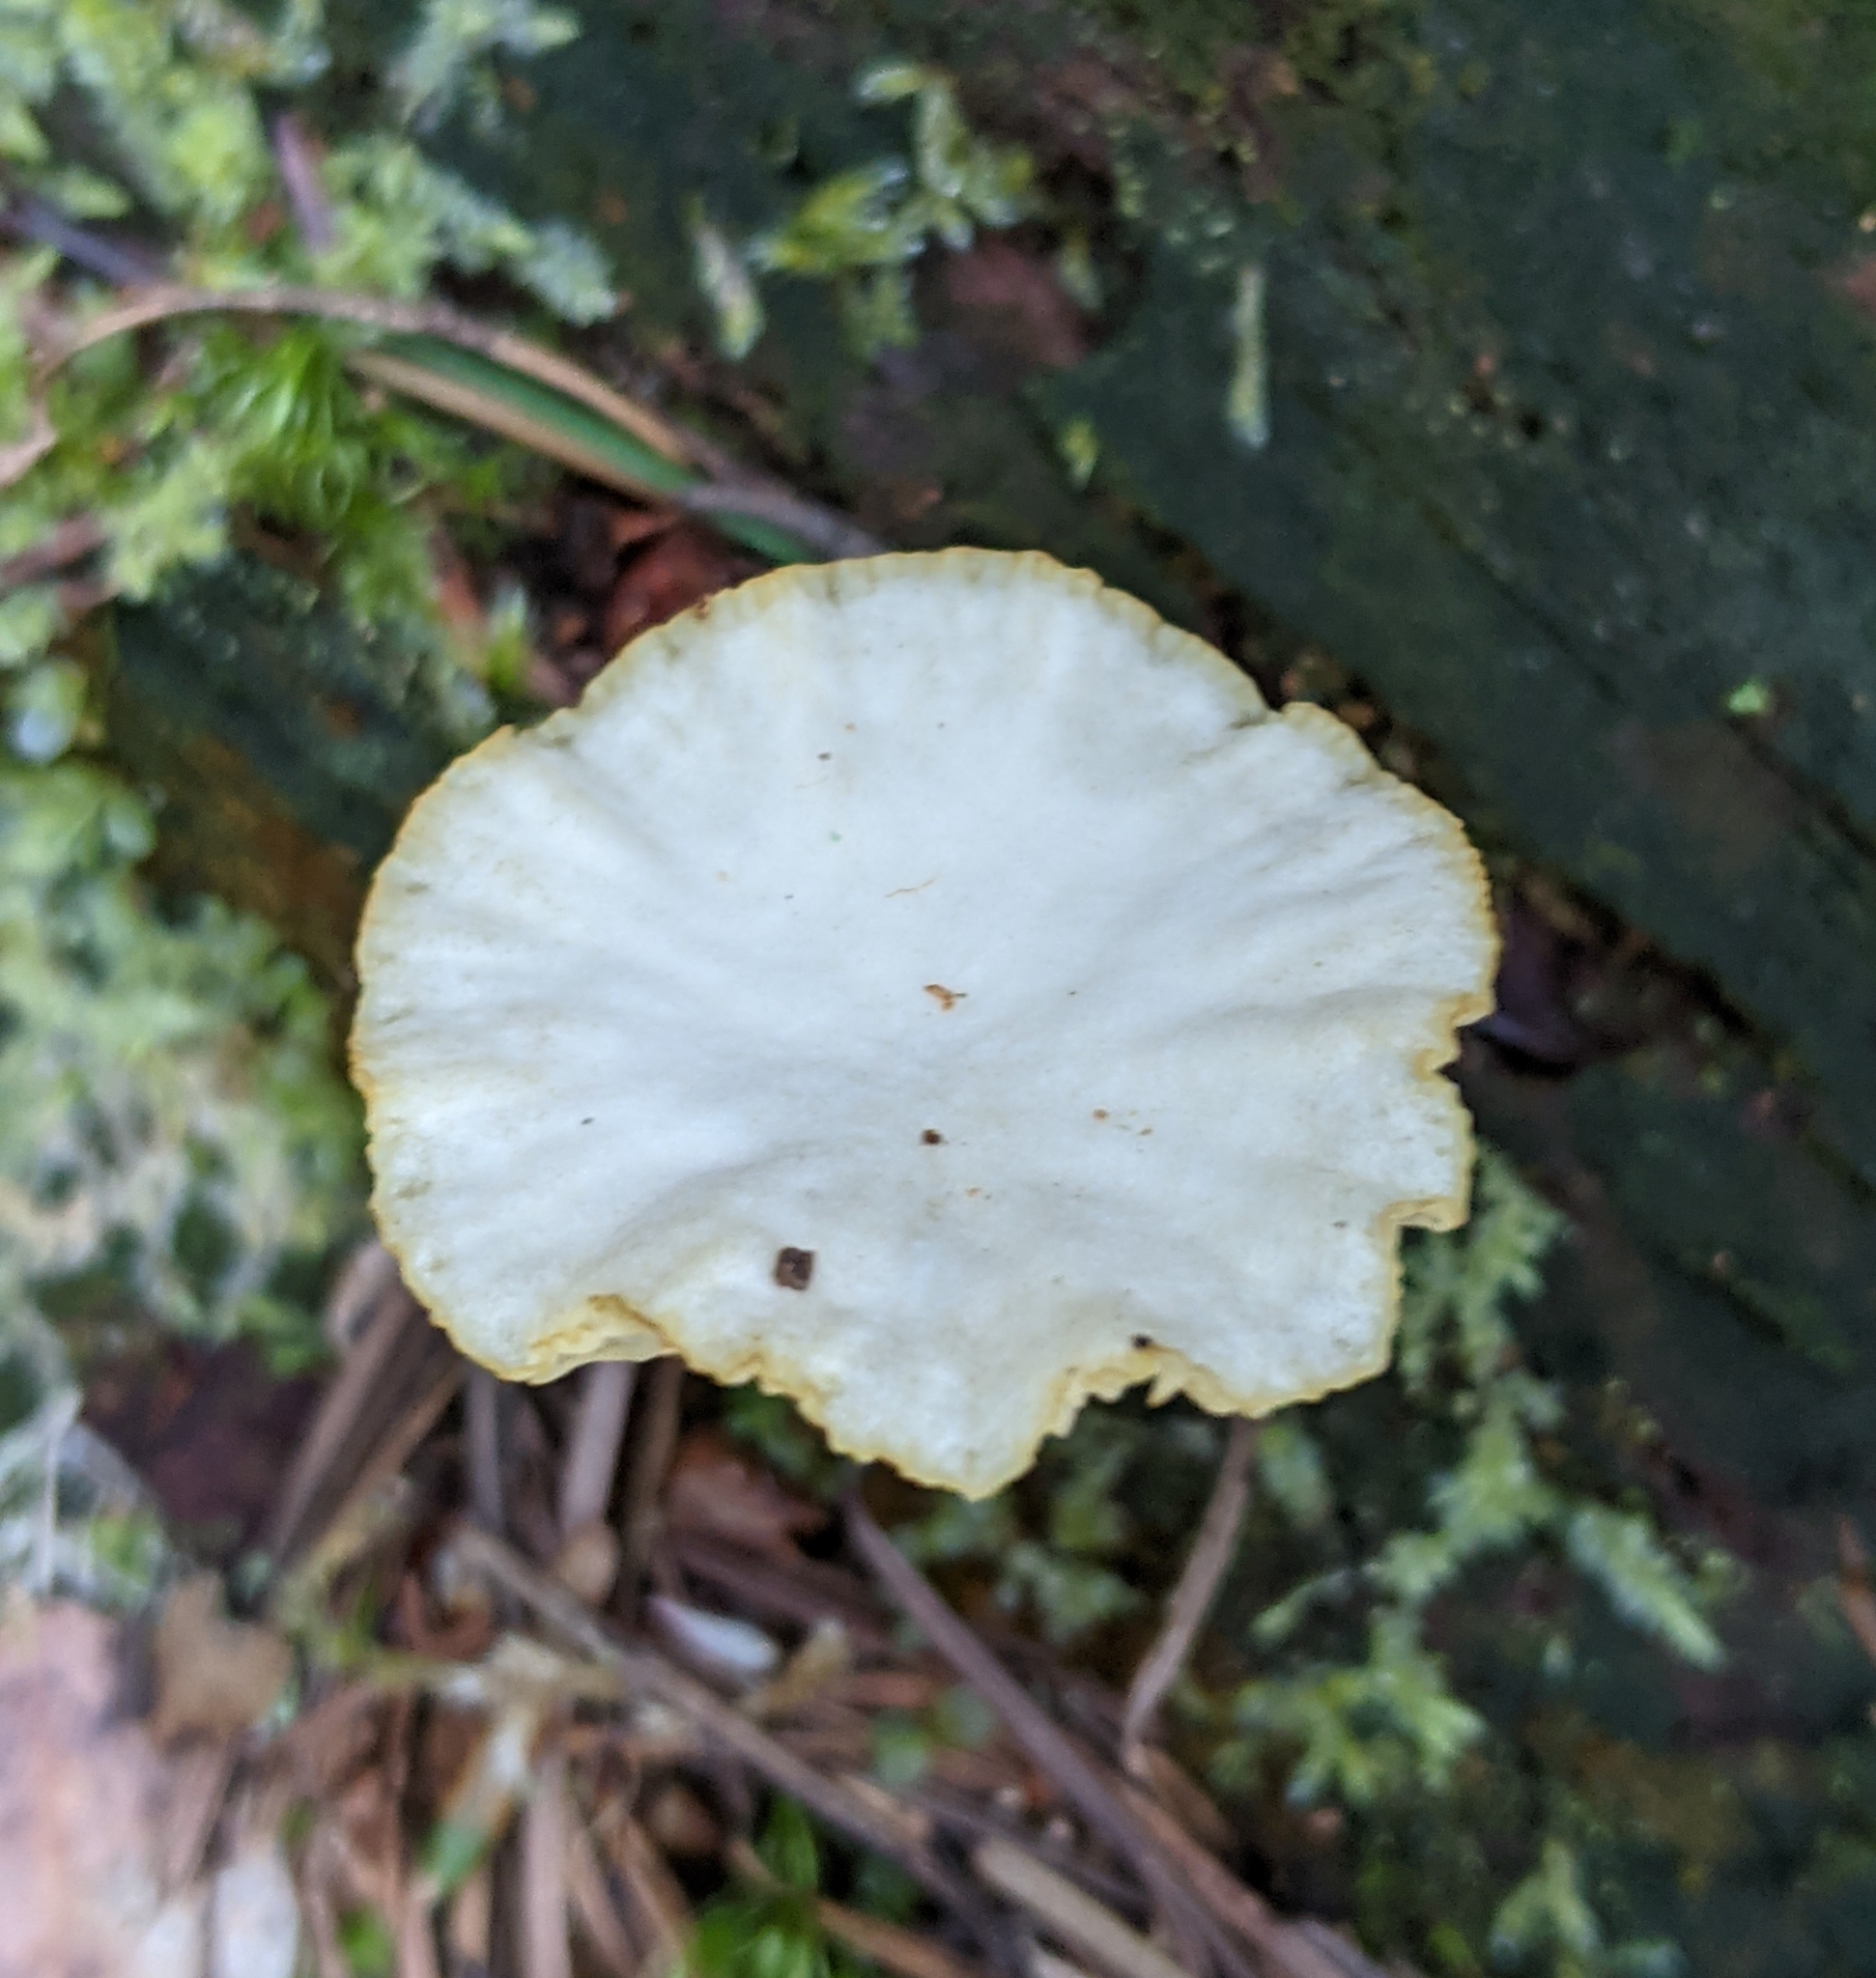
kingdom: Fungi
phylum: Basidiomycota
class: Agaricomycetes
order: Agaricales
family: Hygrophoraceae
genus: Lichenomphalia
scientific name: Lichenomphalia
